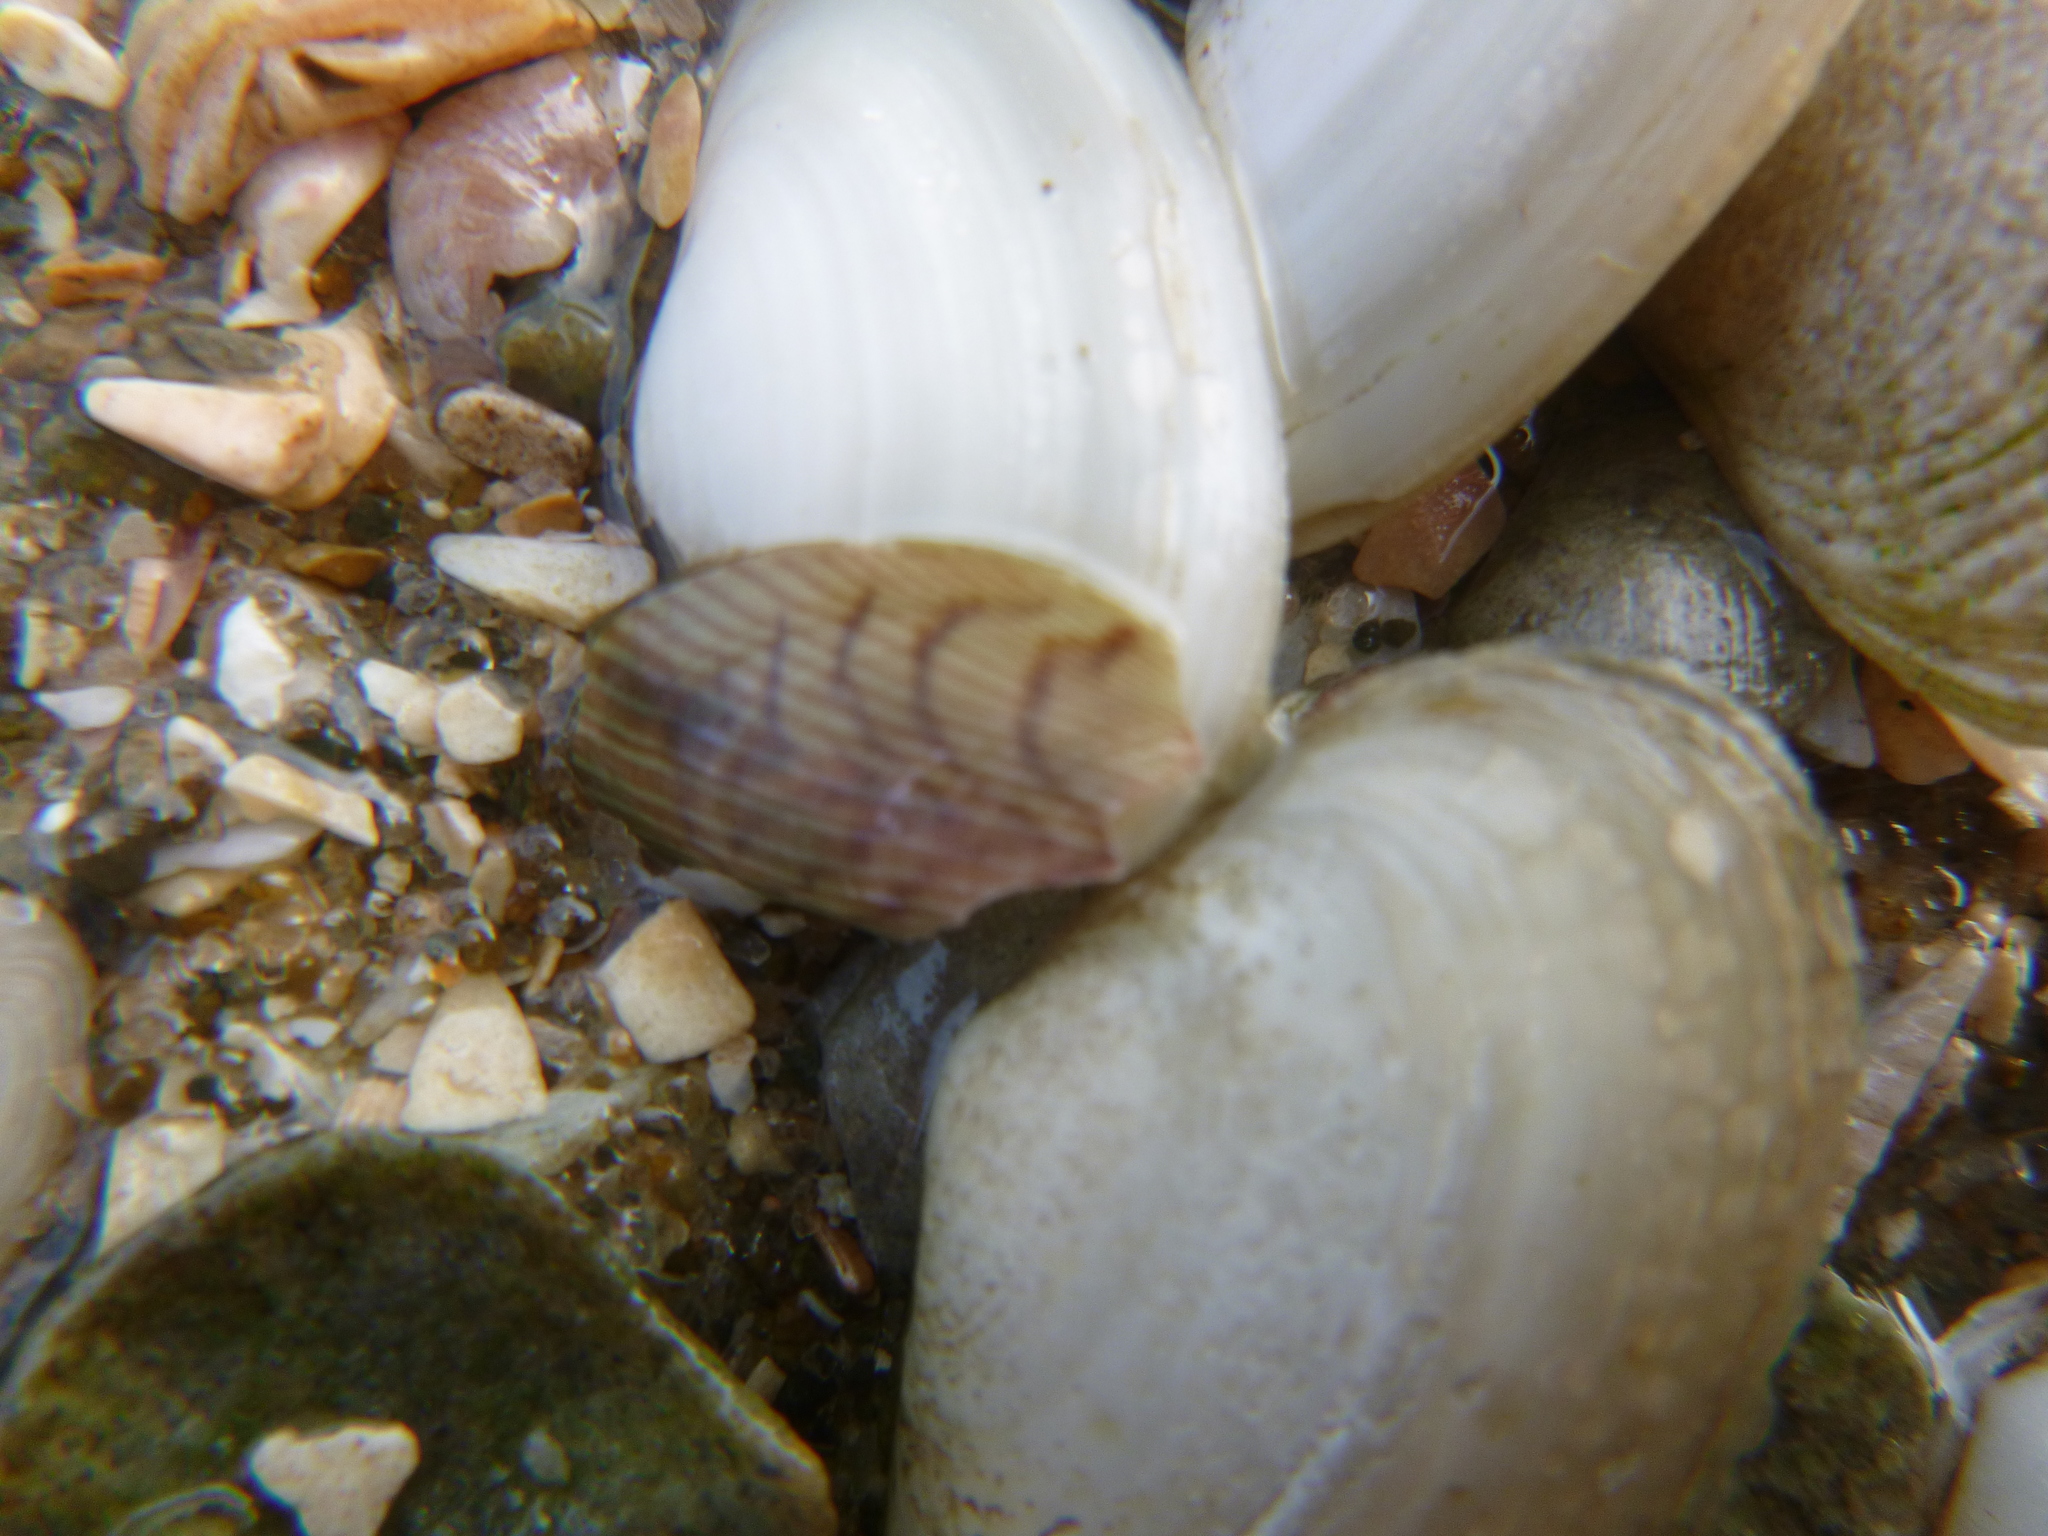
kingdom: Animalia
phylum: Mollusca
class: Bivalvia
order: Mytilida
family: Mytilidae
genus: Arcuatula
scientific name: Arcuatula senhousia
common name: Asian mussel
